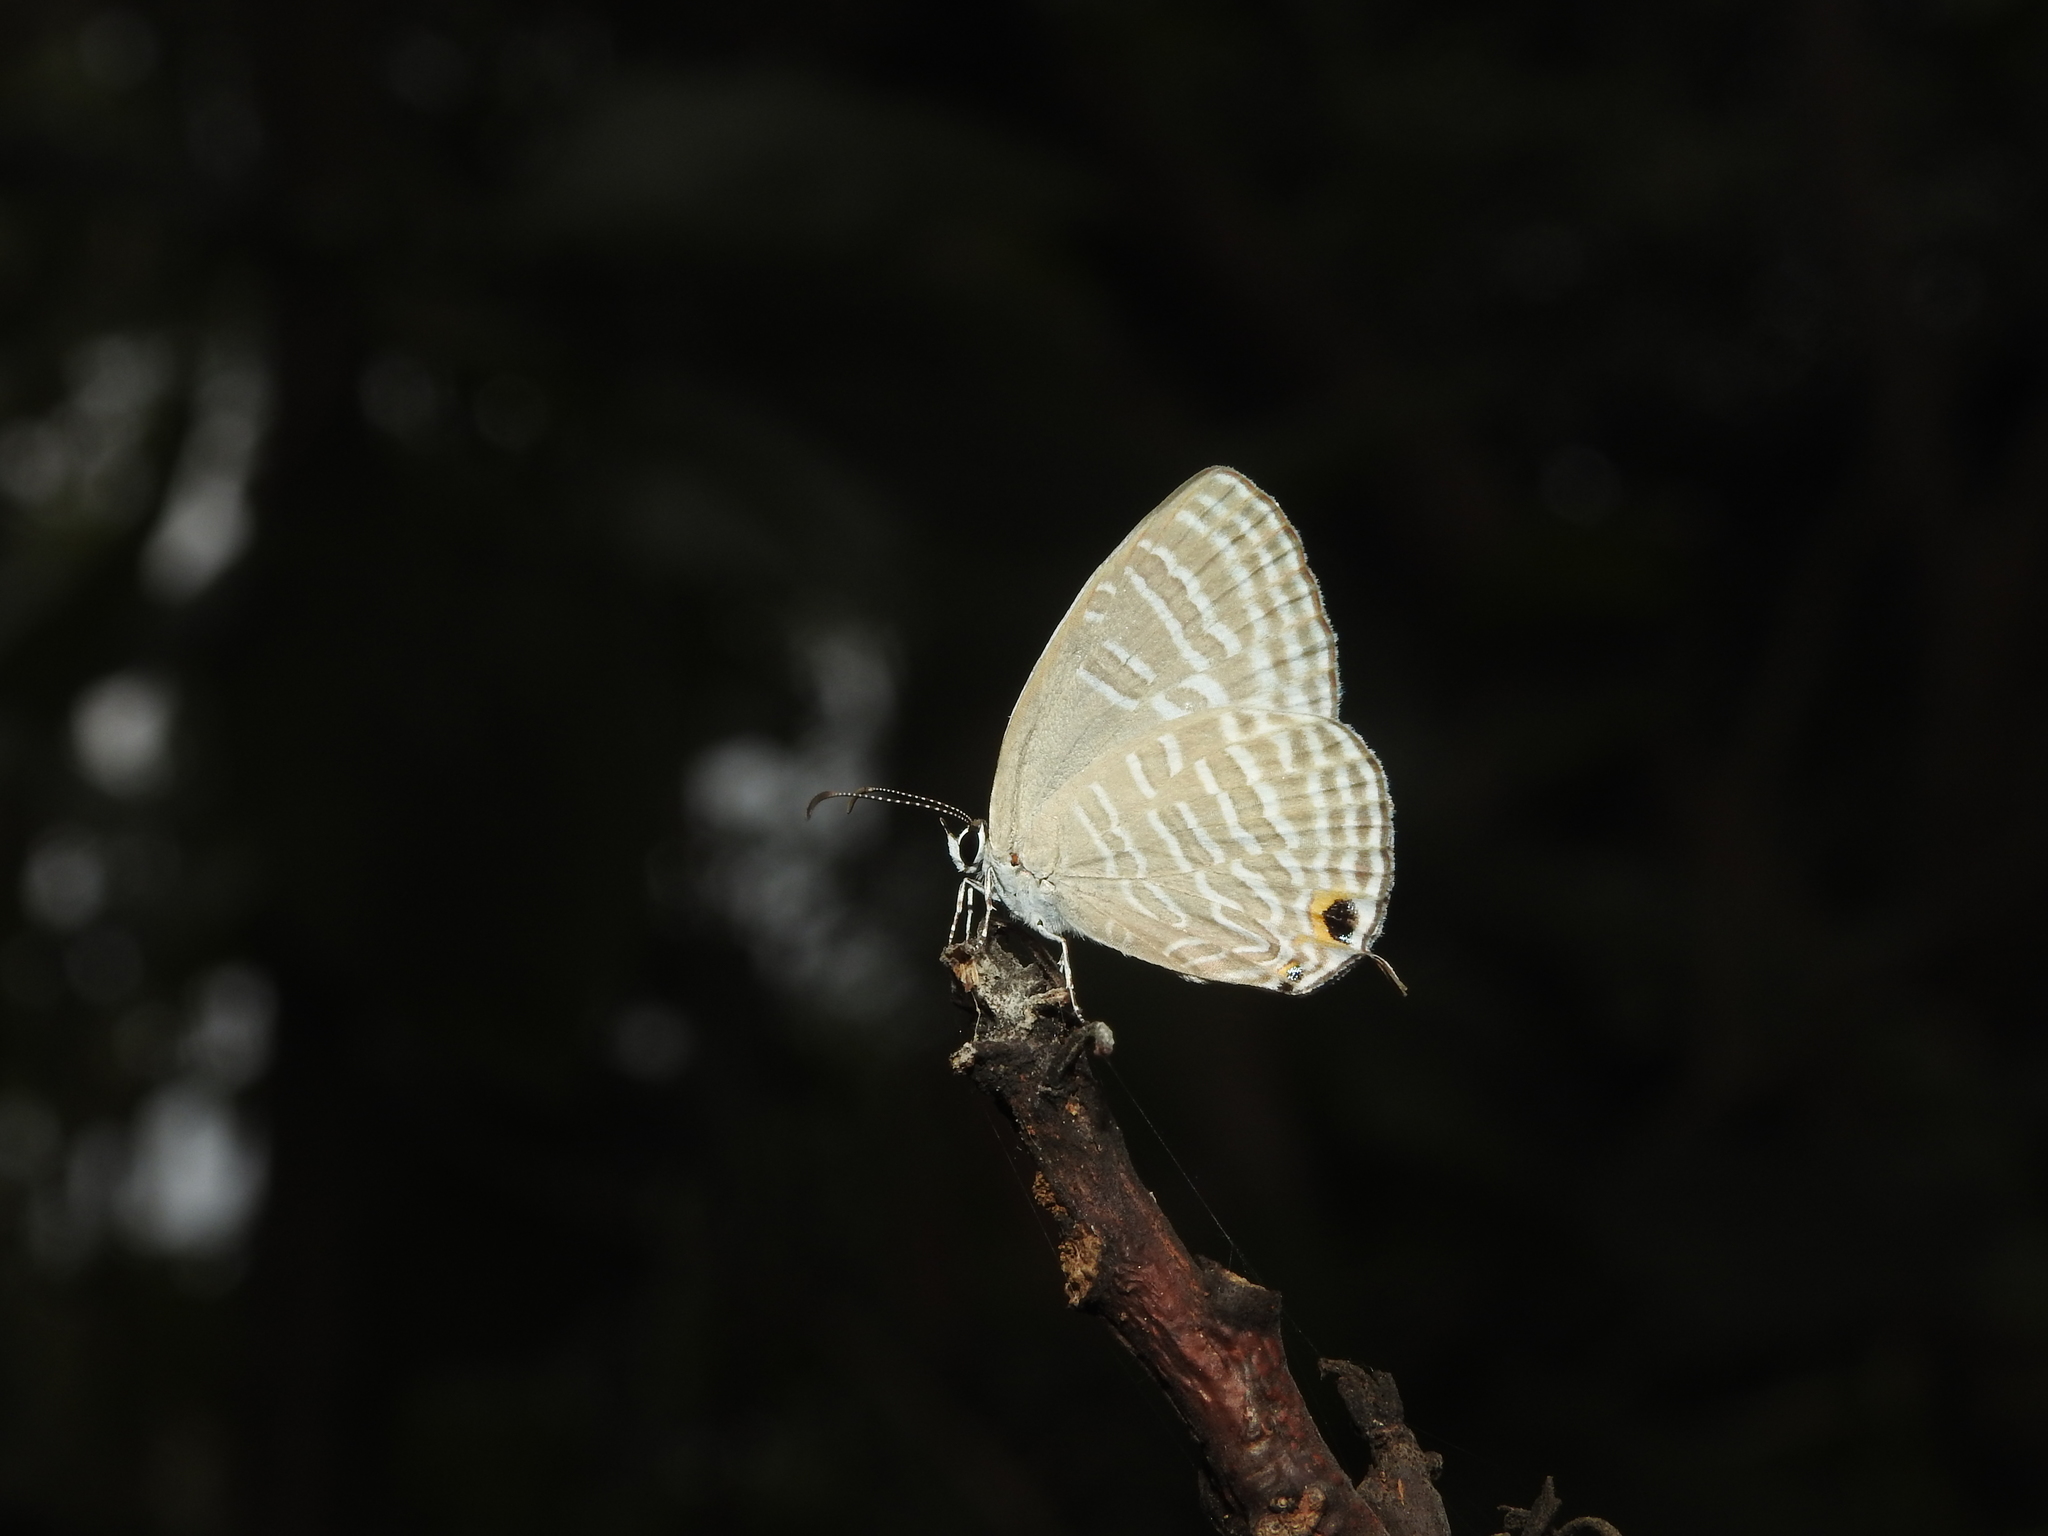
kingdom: Animalia
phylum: Arthropoda
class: Insecta
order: Lepidoptera
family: Lycaenidae
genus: Jamides
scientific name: Jamides celeno
